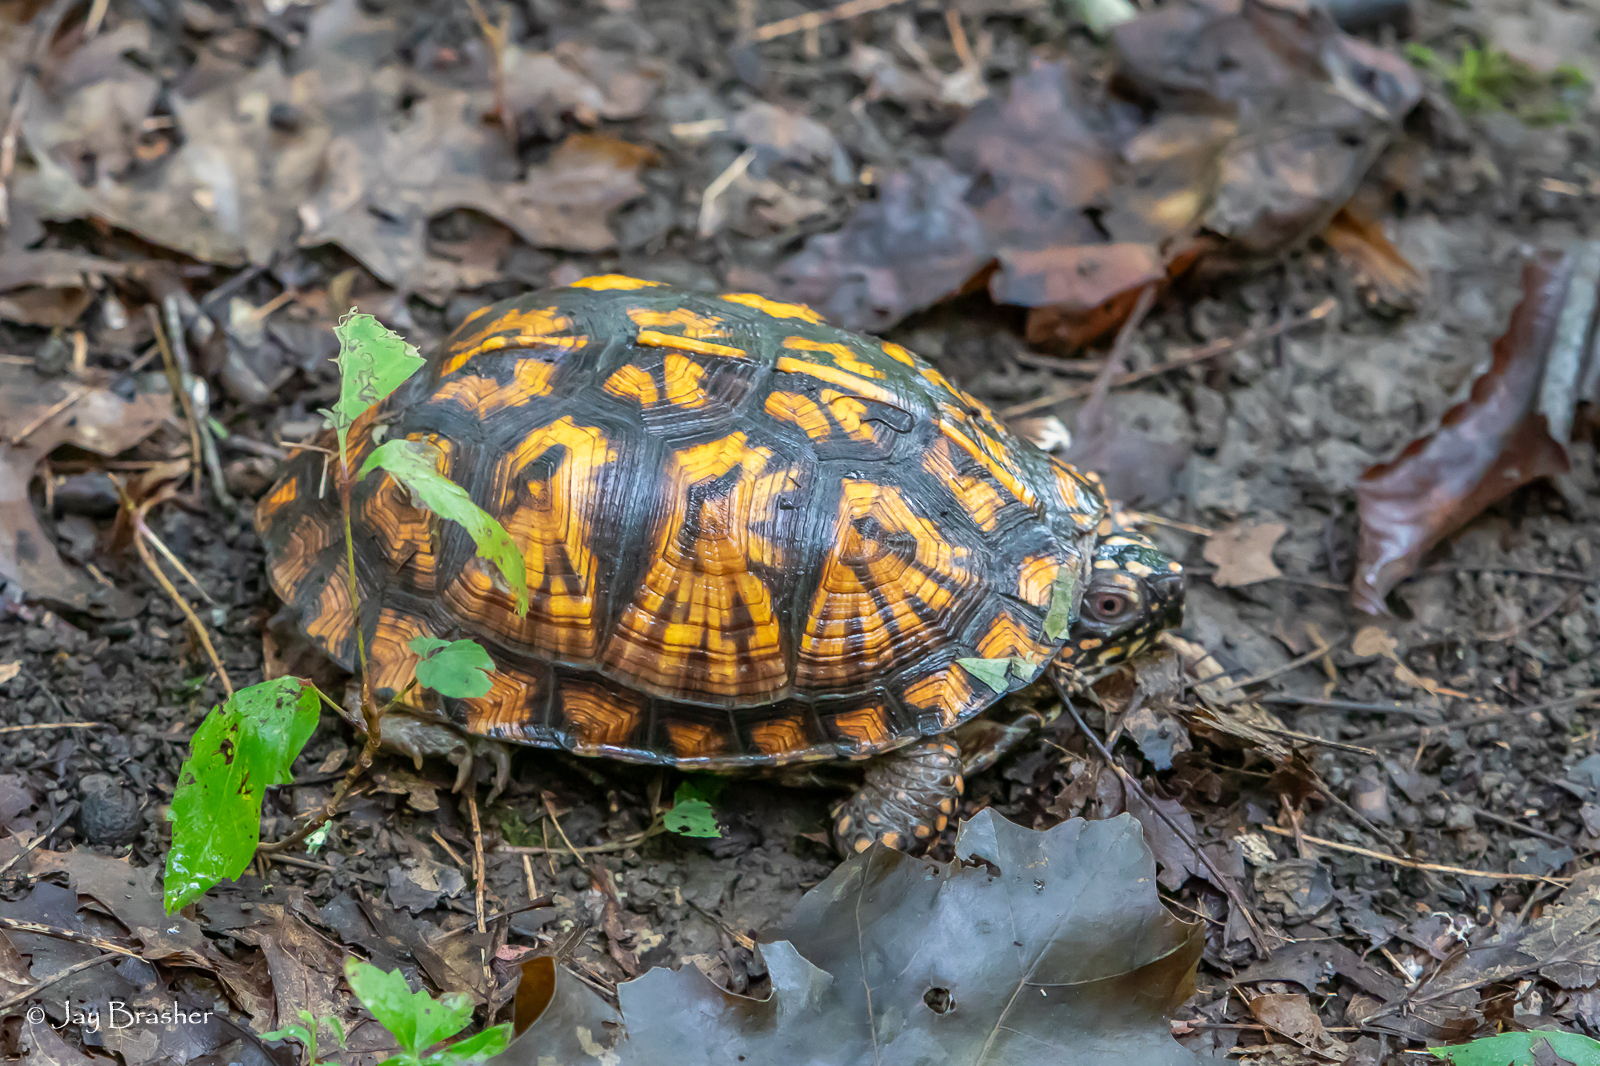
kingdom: Animalia
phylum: Chordata
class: Testudines
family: Emydidae
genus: Terrapene
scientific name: Terrapene carolina
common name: Common box turtle
